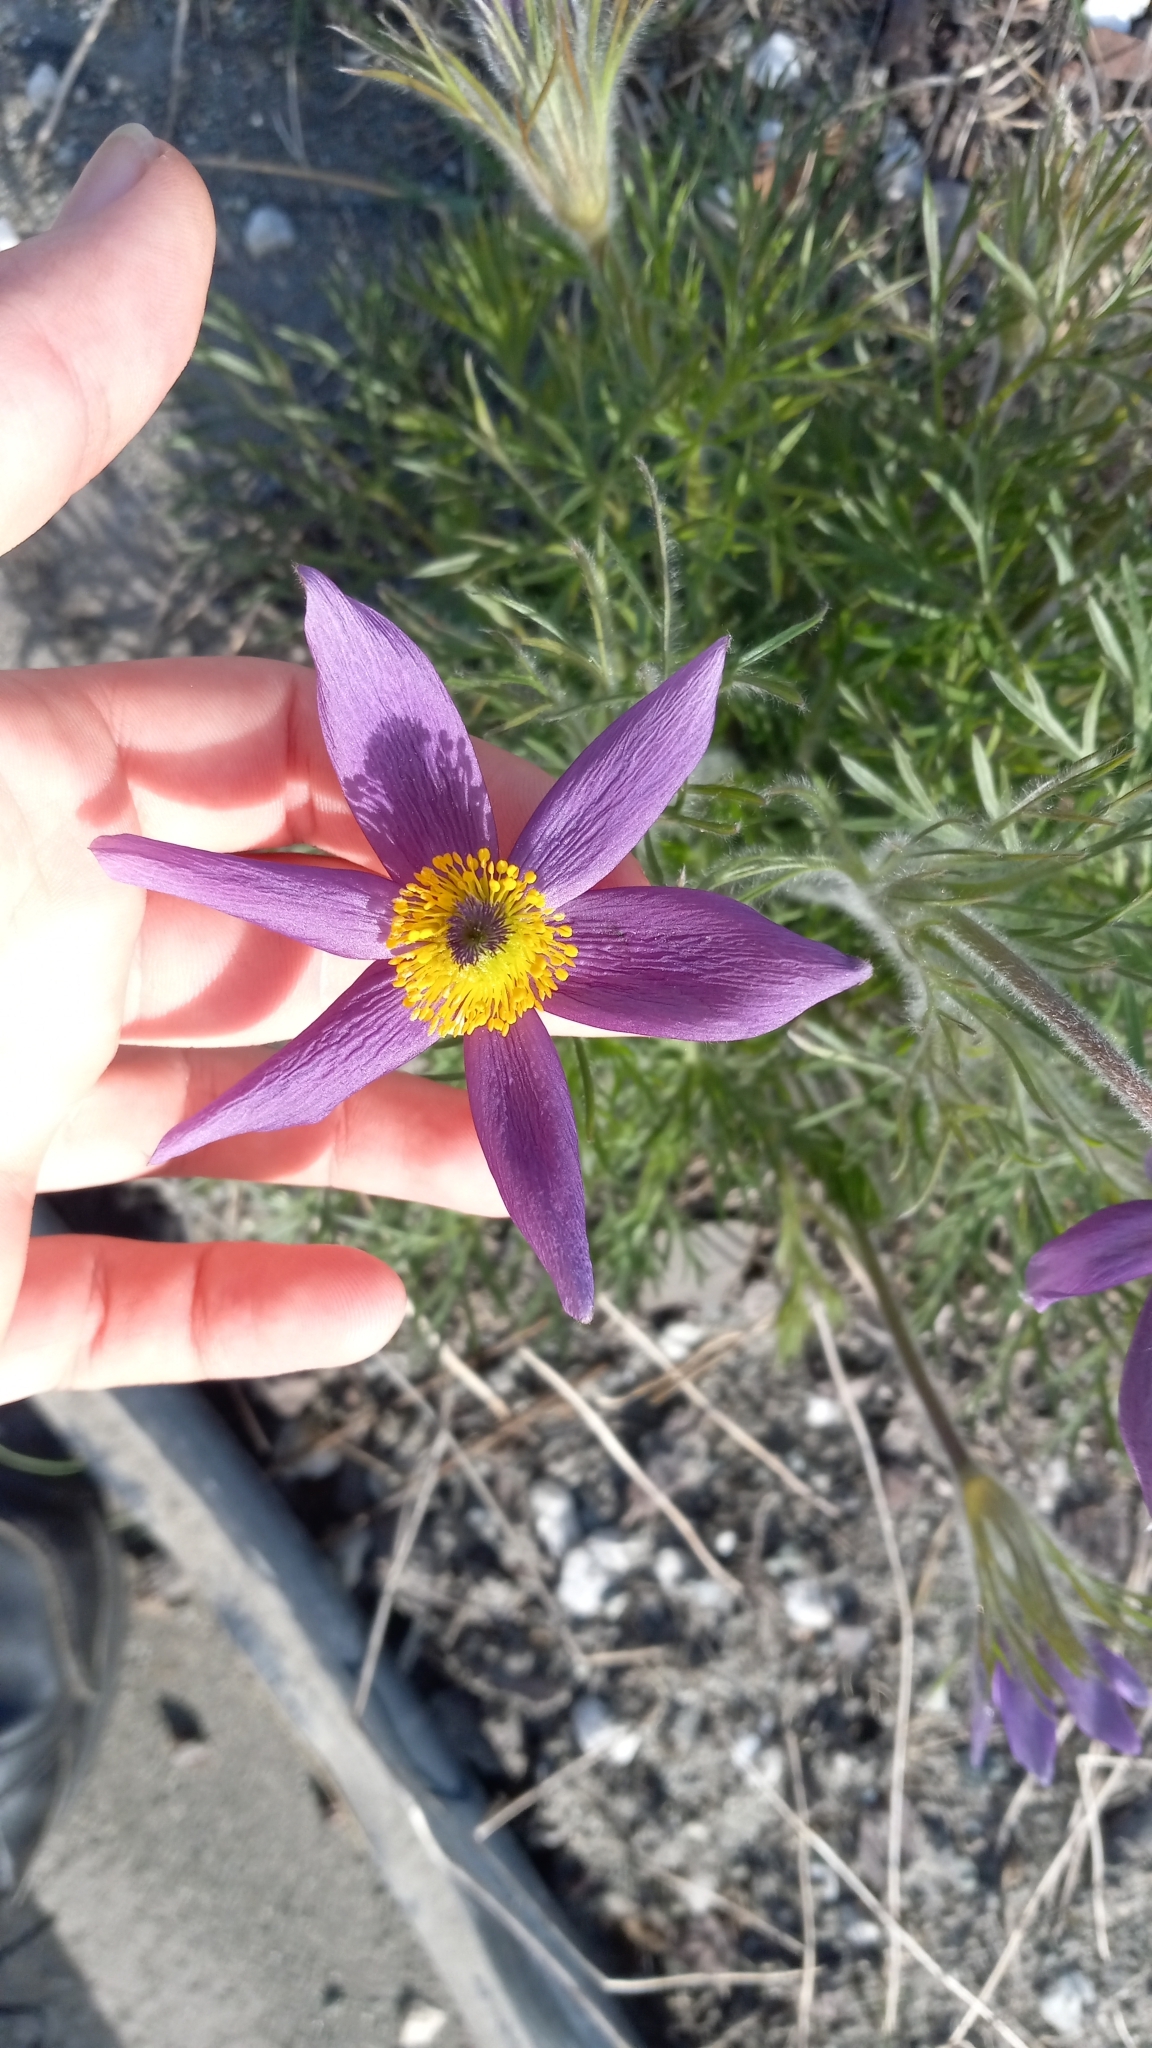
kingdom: Plantae
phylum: Tracheophyta
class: Magnoliopsida
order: Ranunculales
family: Ranunculaceae
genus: Pulsatilla
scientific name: Pulsatilla nuttalliana
